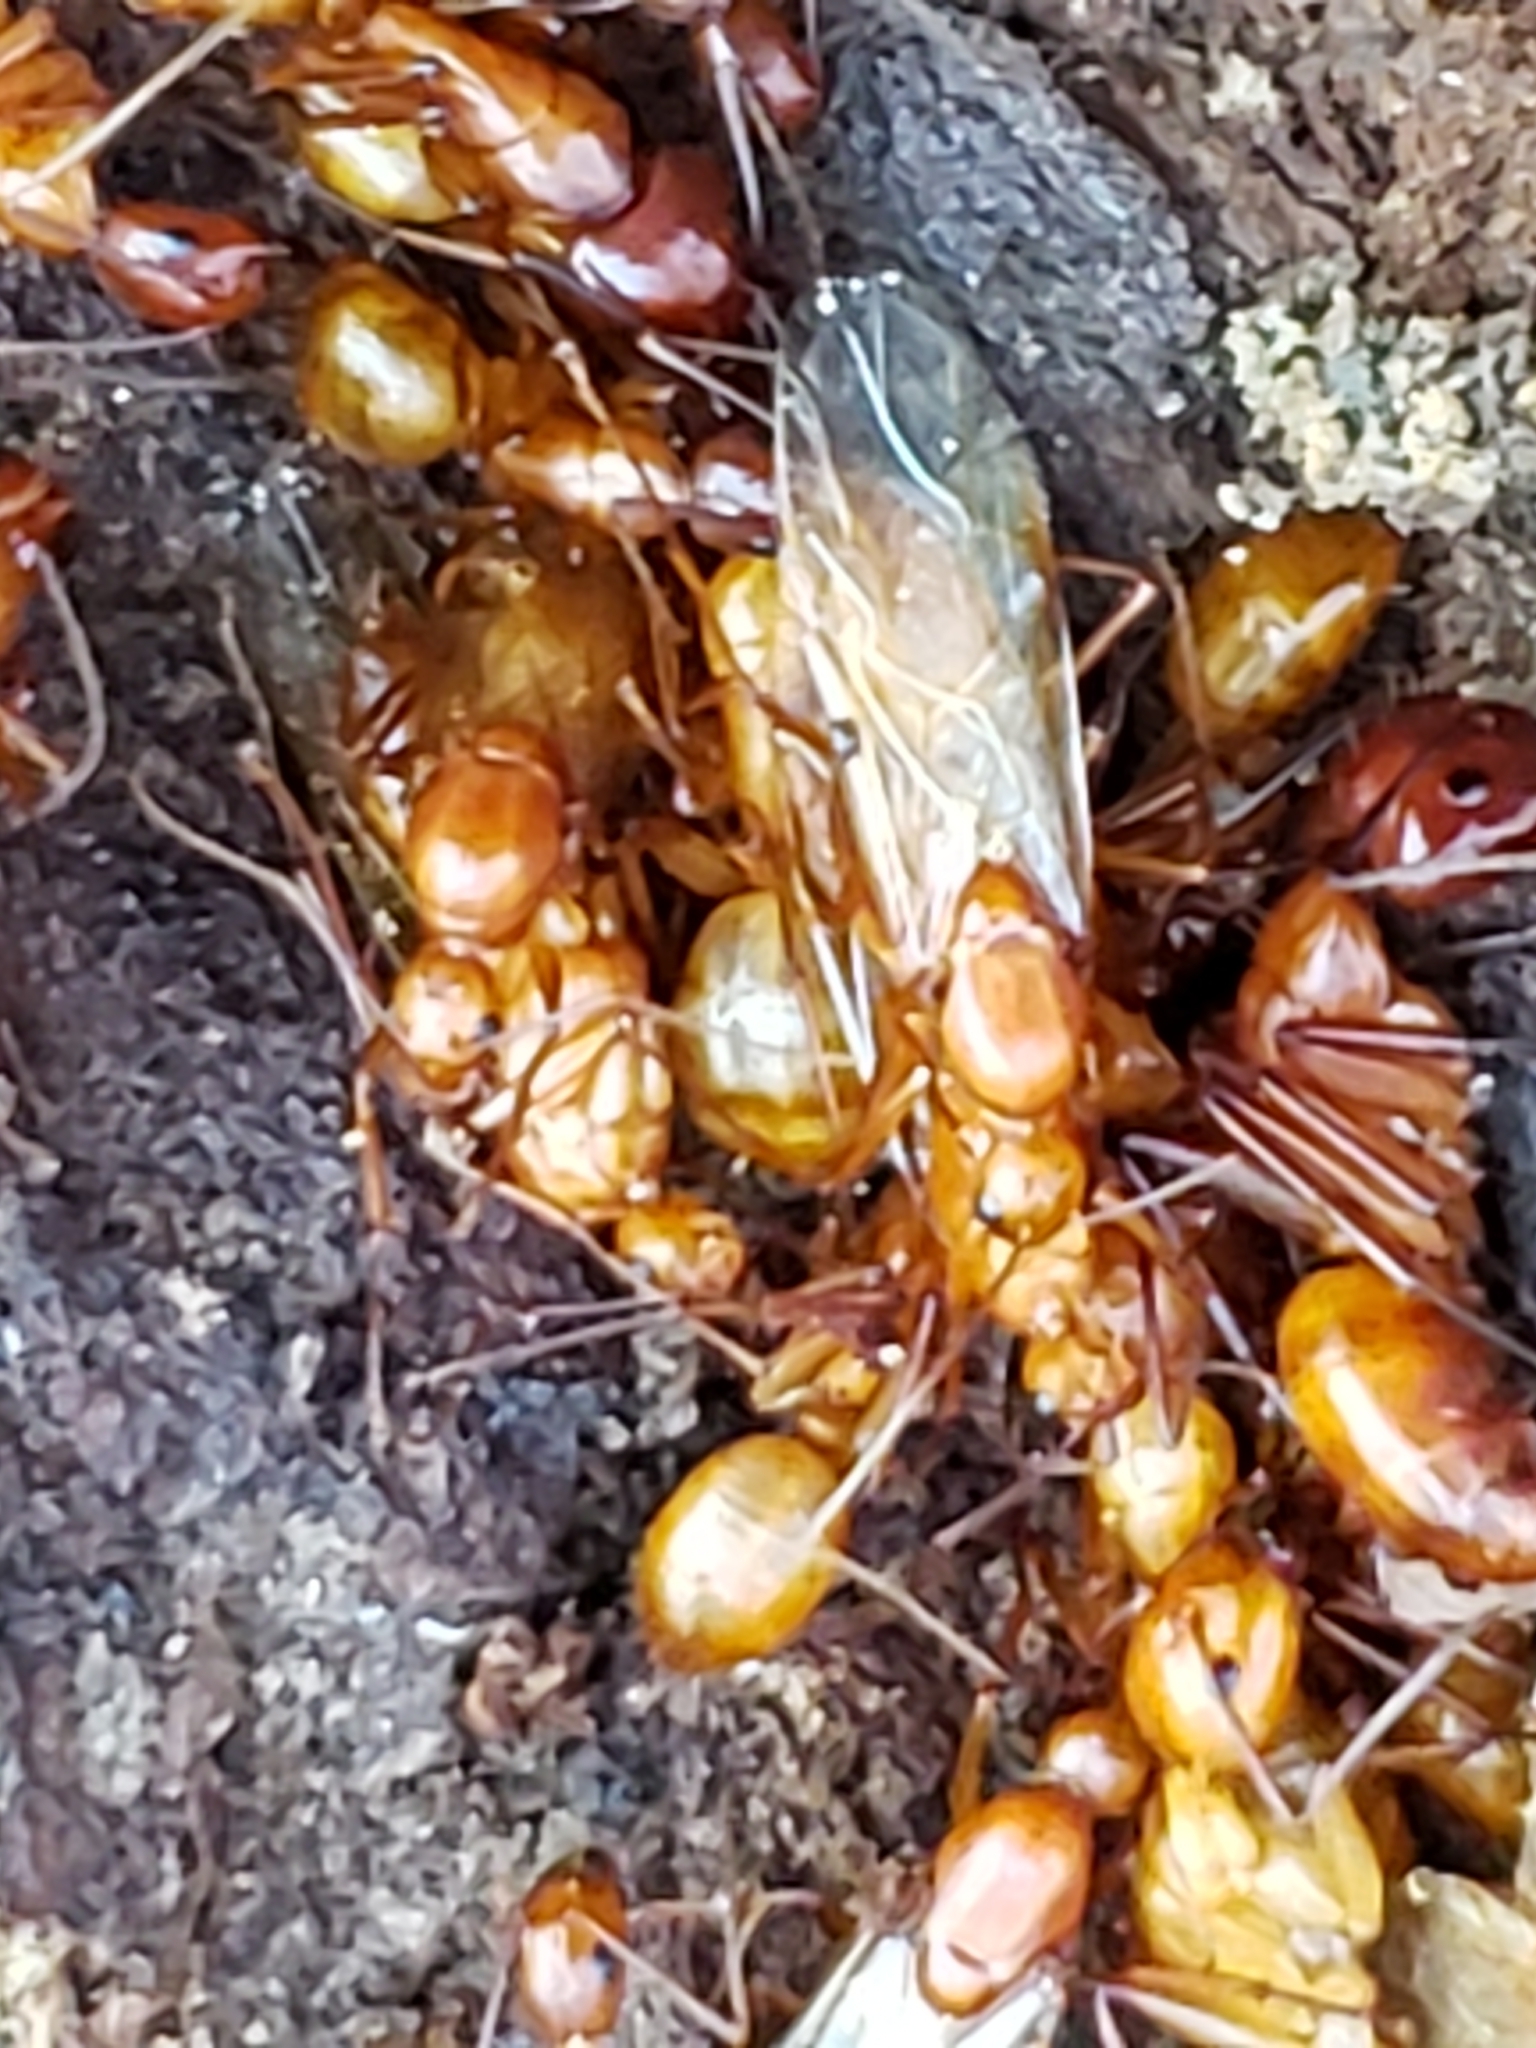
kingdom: Animalia
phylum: Arthropoda
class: Insecta
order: Hymenoptera
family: Formicidae
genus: Camponotus
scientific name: Camponotus castaneus
